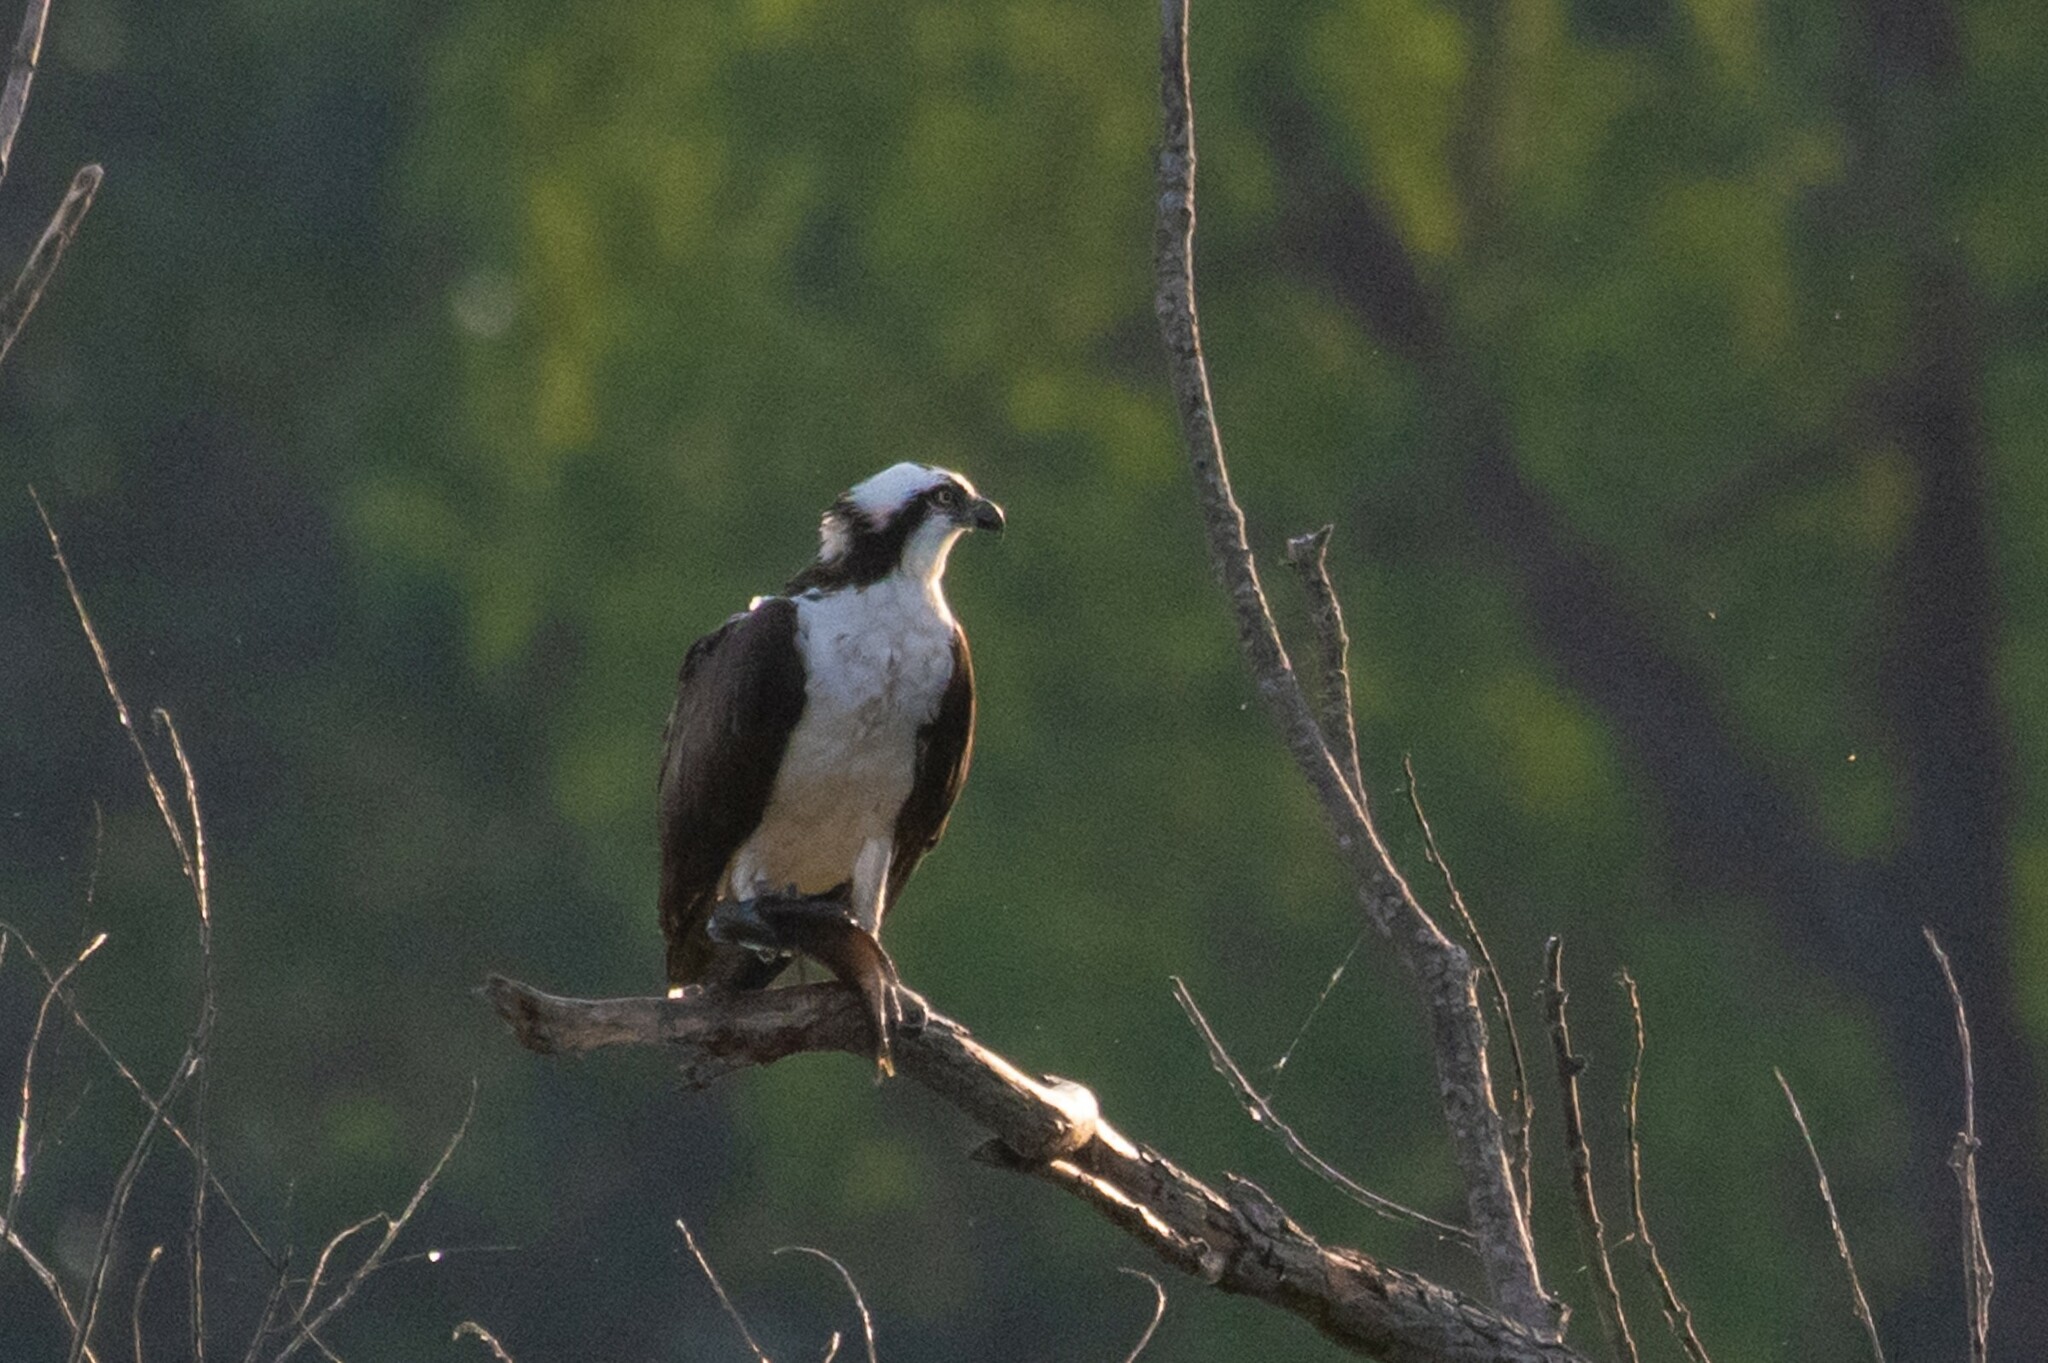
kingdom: Animalia
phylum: Chordata
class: Aves
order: Accipitriformes
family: Pandionidae
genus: Pandion
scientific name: Pandion haliaetus
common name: Osprey
